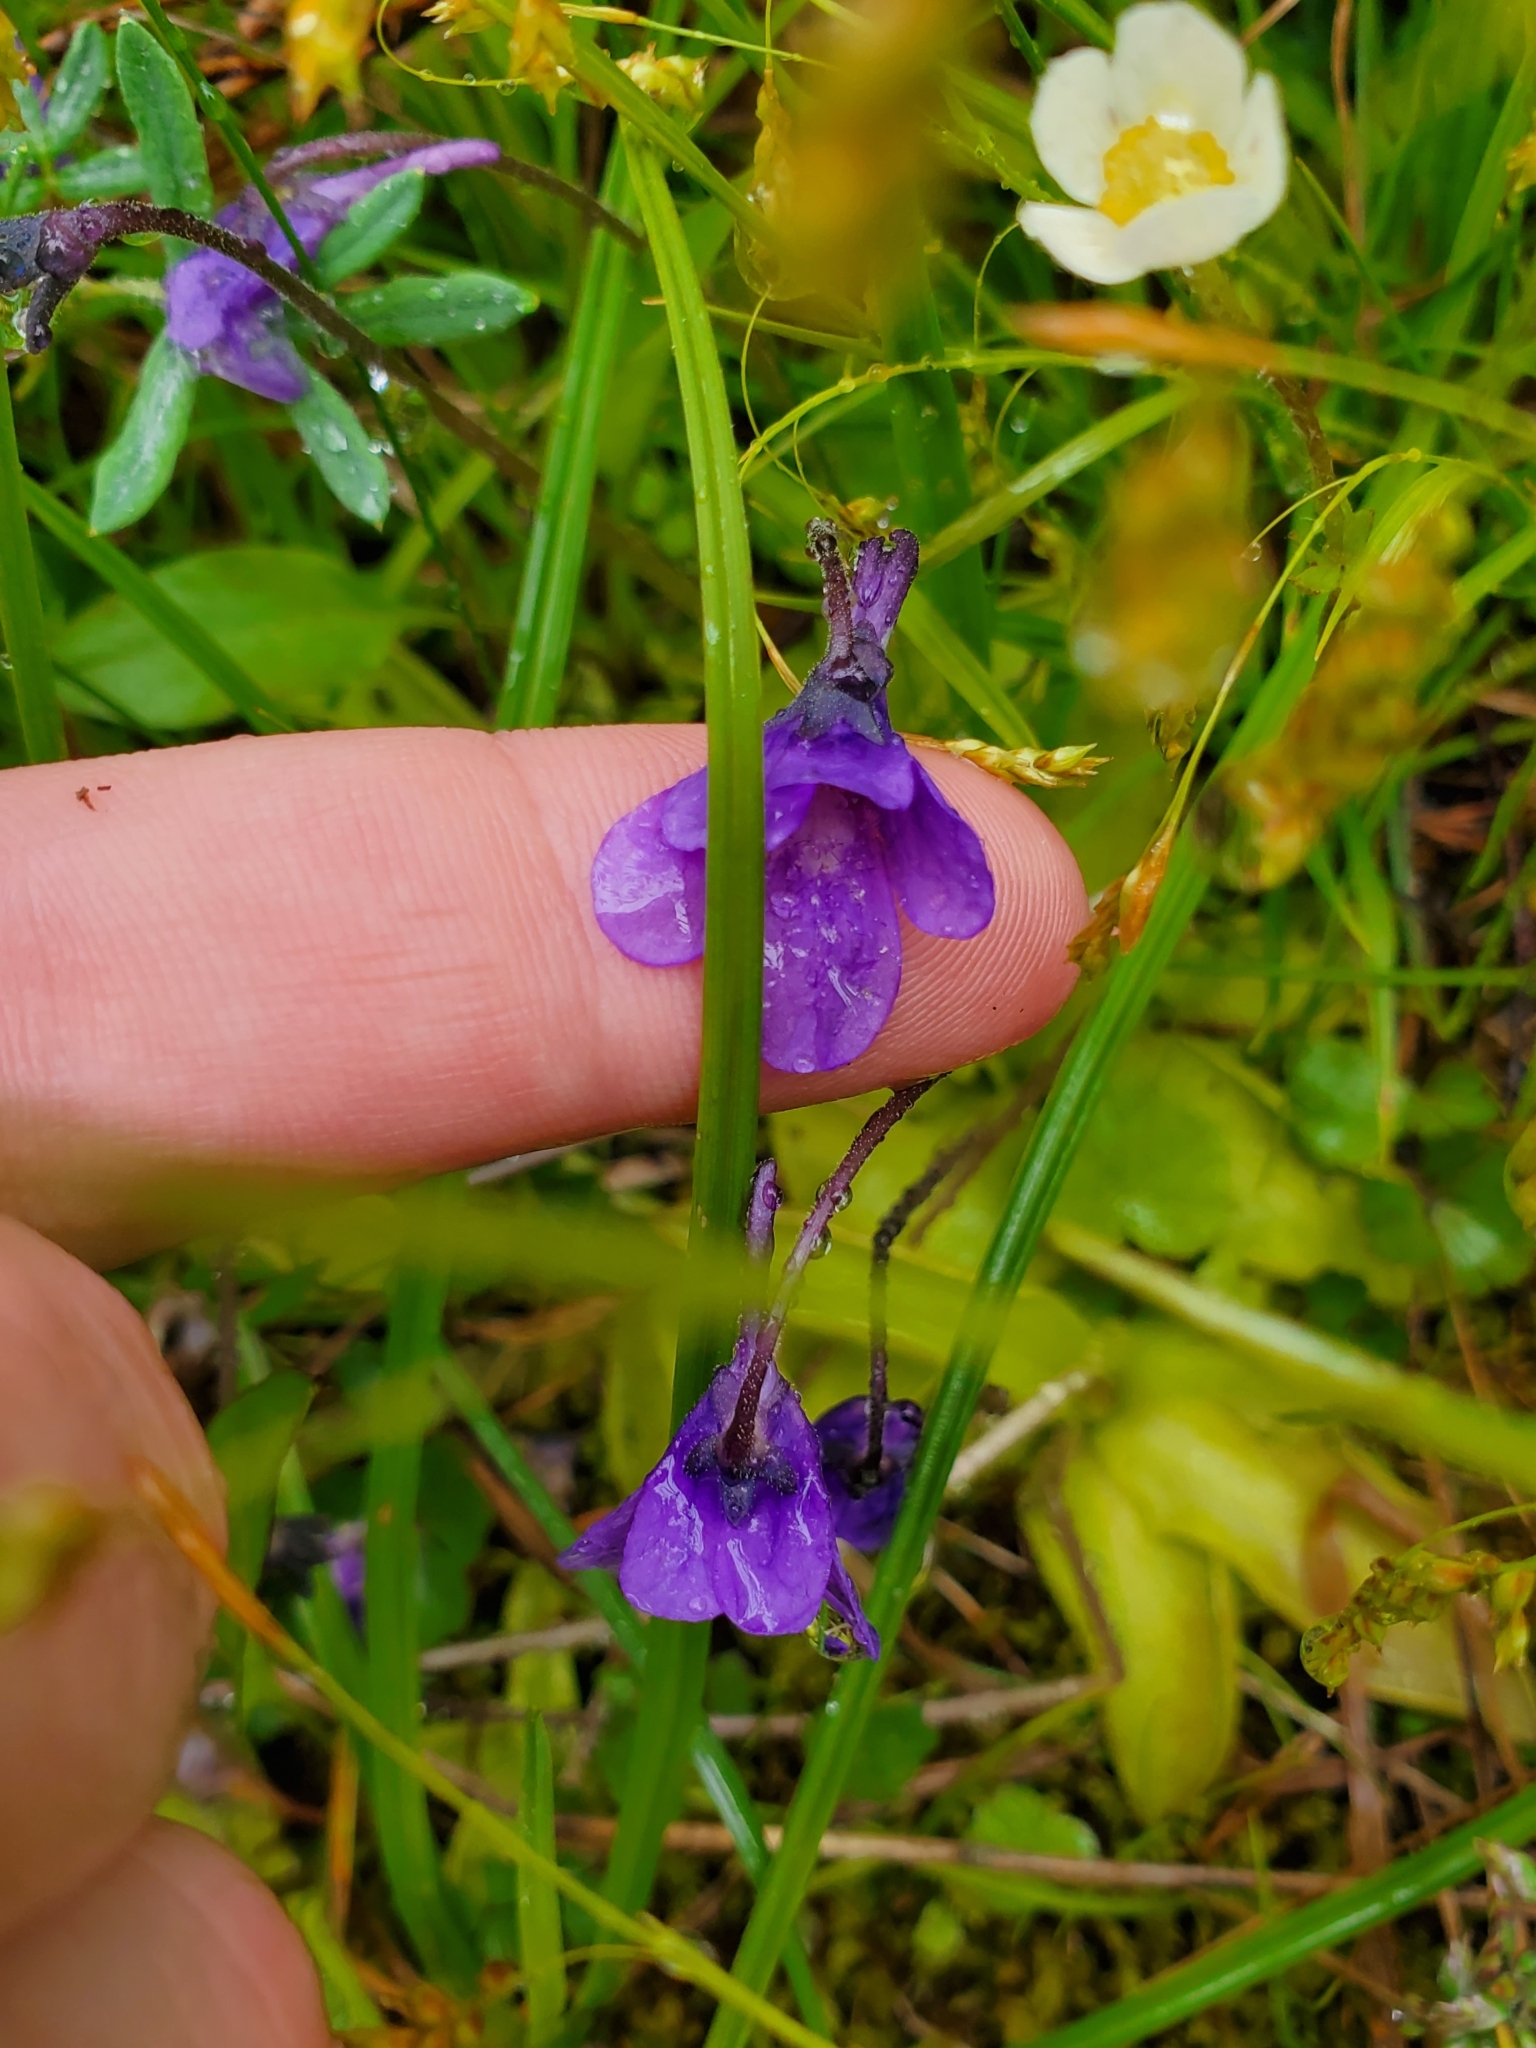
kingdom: Plantae
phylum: Tracheophyta
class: Magnoliopsida
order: Lamiales
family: Lentibulariaceae
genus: Pinguicula
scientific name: Pinguicula vulgaris
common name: Common butterwort
